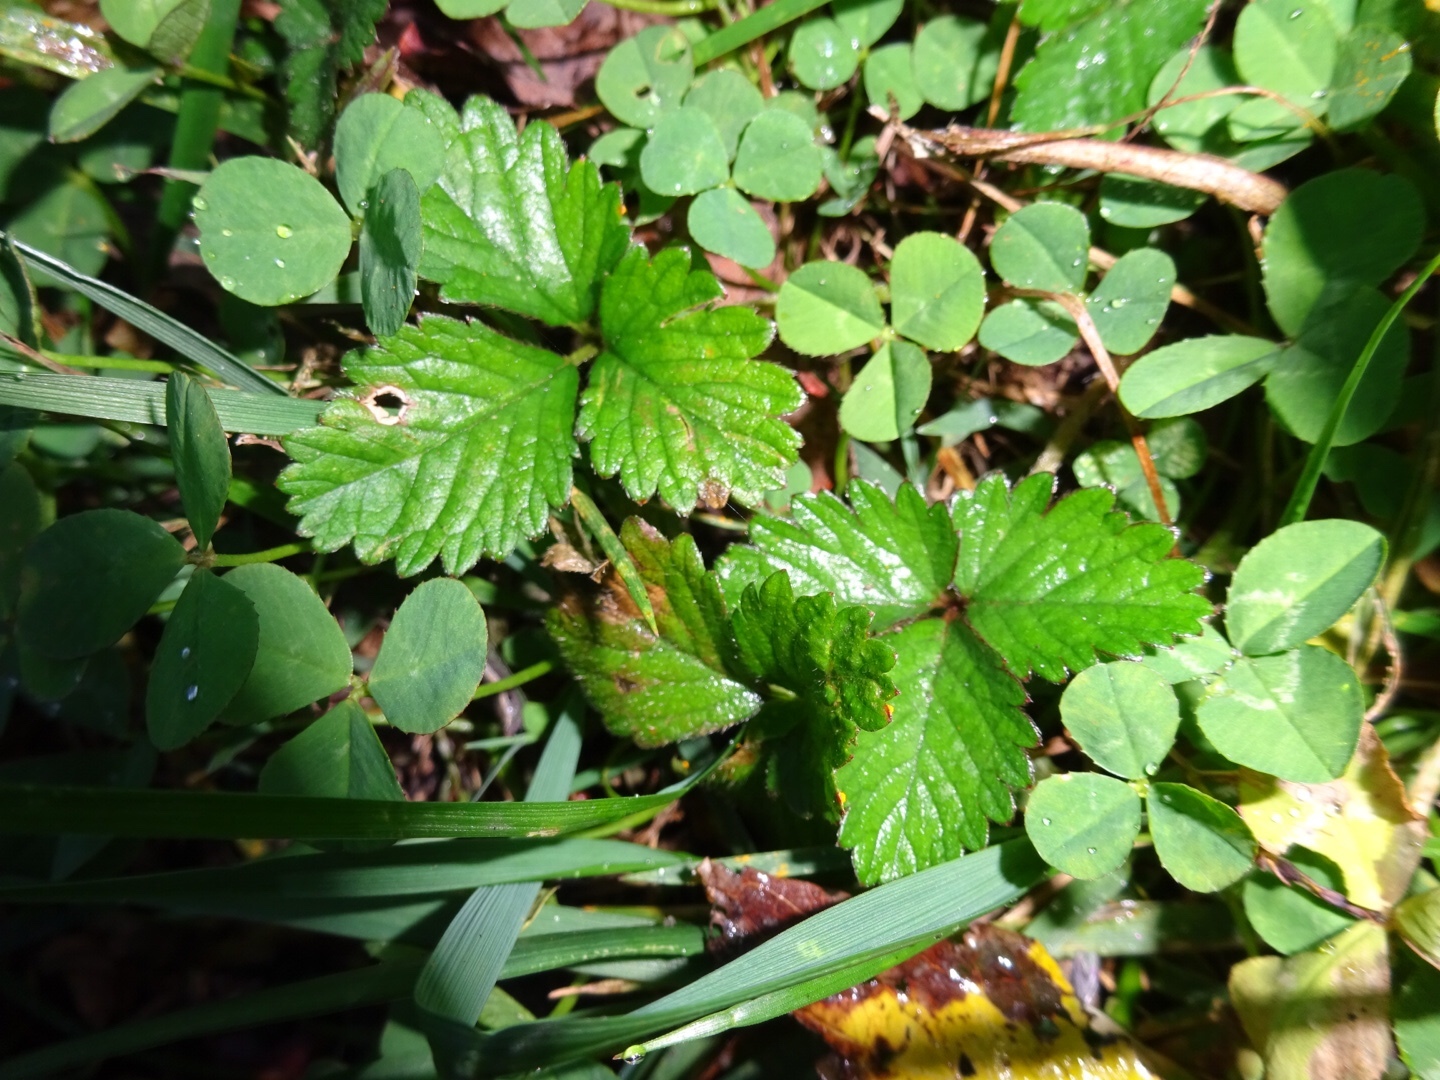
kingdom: Plantae
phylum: Tracheophyta
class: Magnoliopsida
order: Rosales
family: Rosaceae
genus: Potentilla
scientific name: Potentilla indica
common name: Yellow-flowered strawberry
